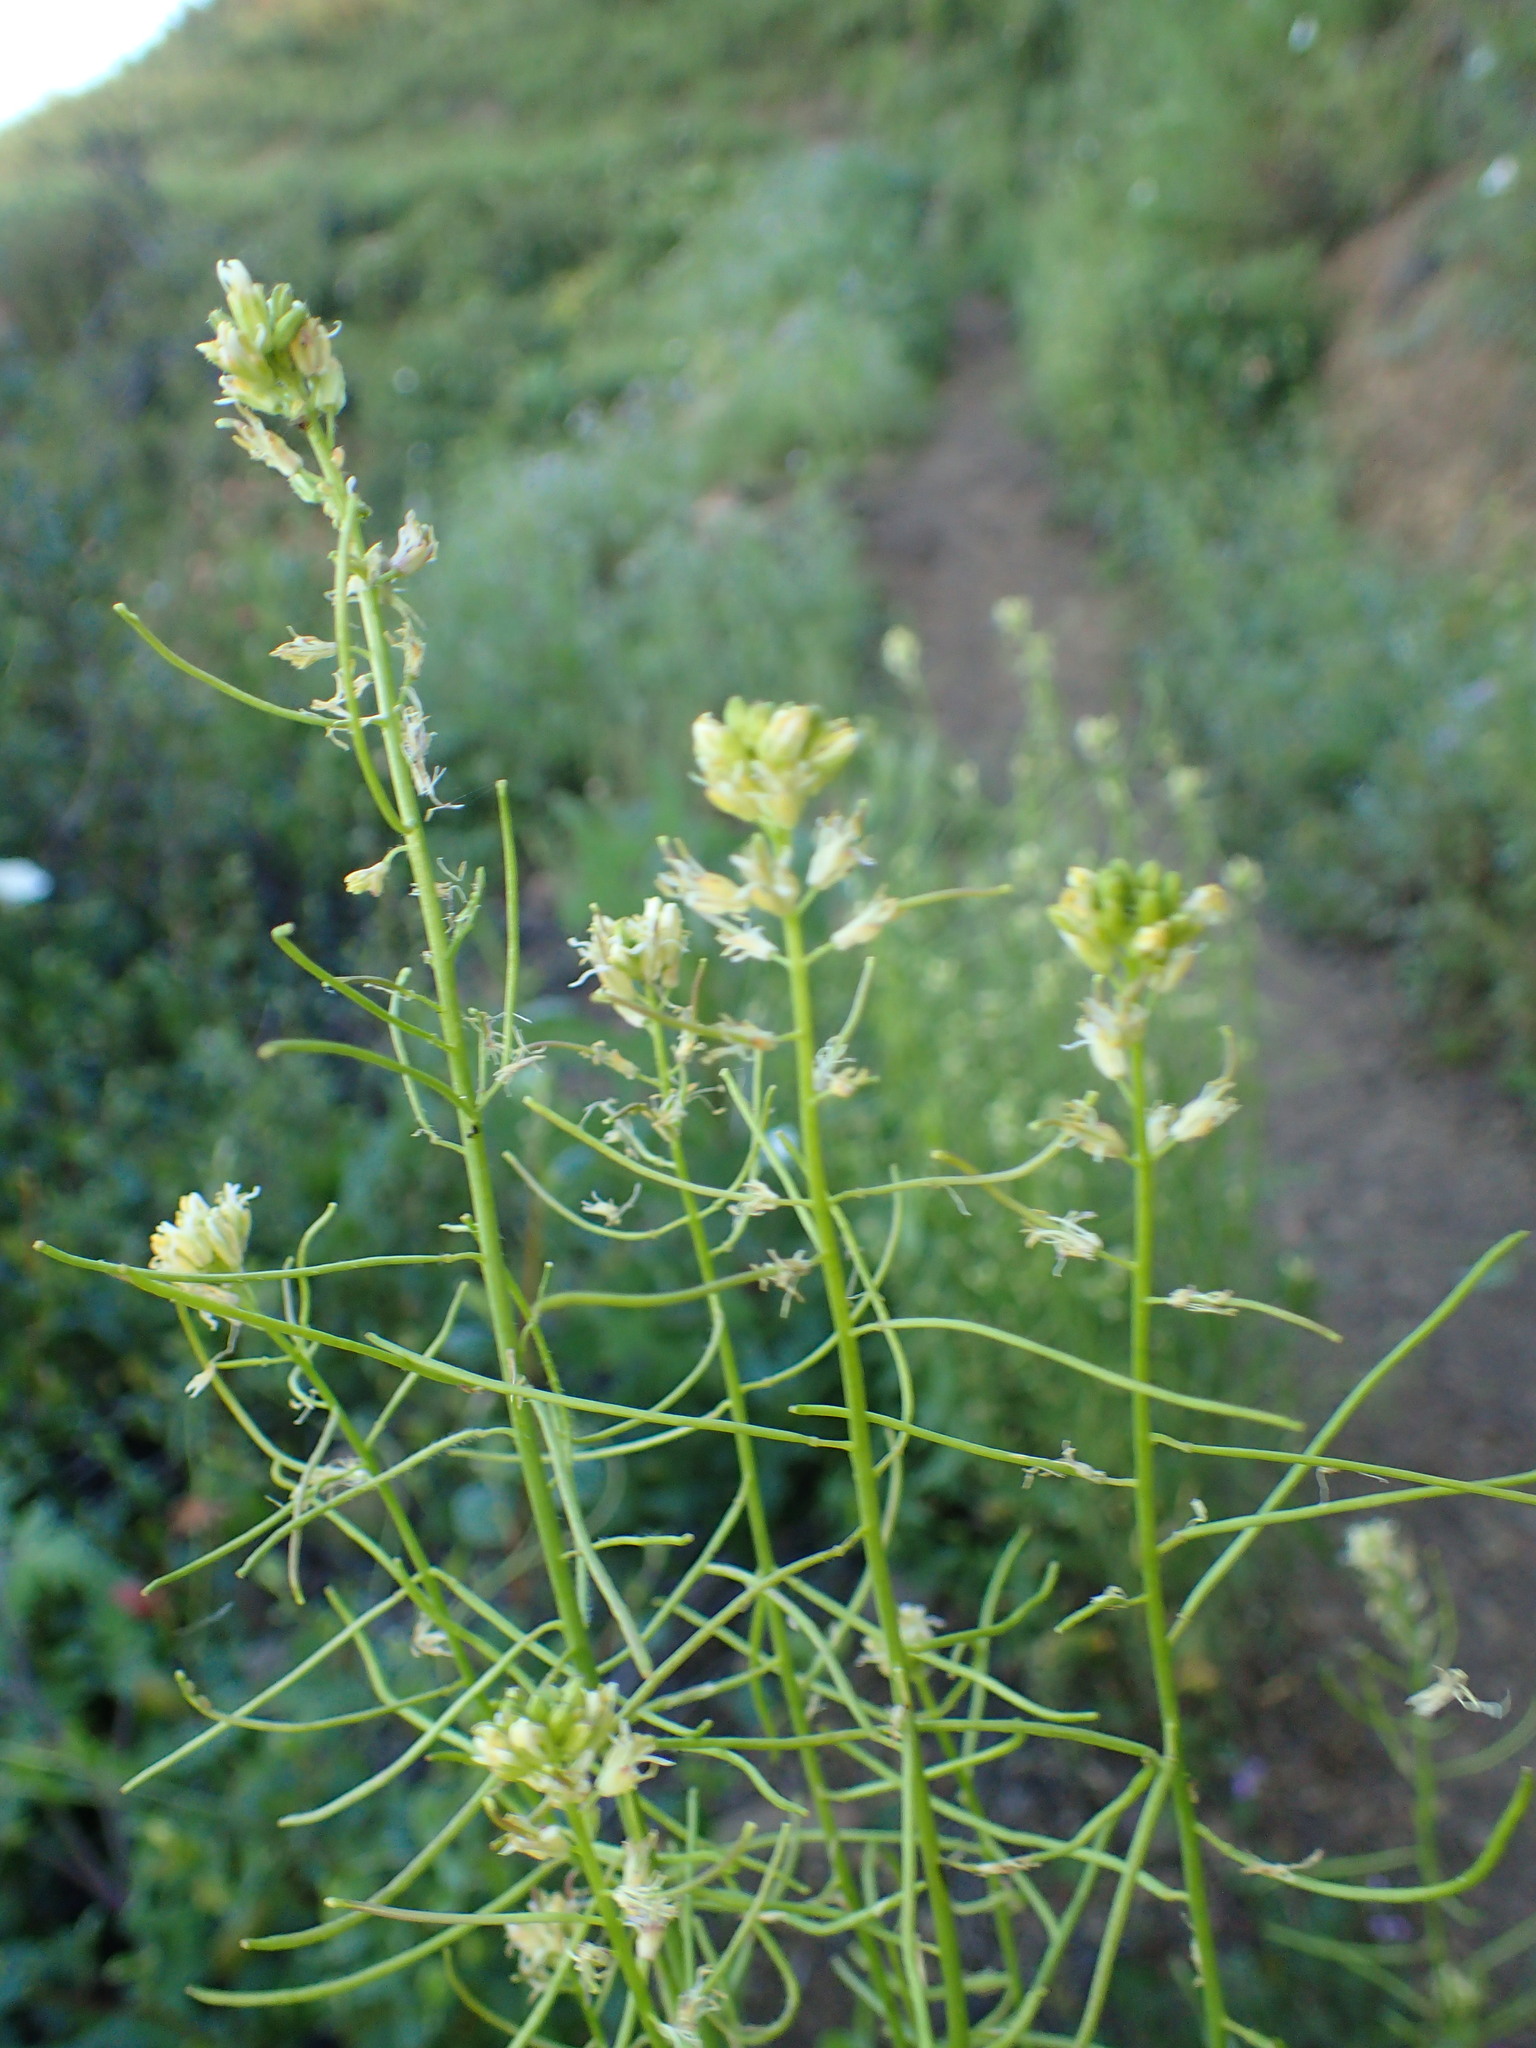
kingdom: Plantae
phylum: Tracheophyta
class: Magnoliopsida
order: Brassicales
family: Brassicaceae
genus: Streptanthus
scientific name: Streptanthus lasiophyllus
